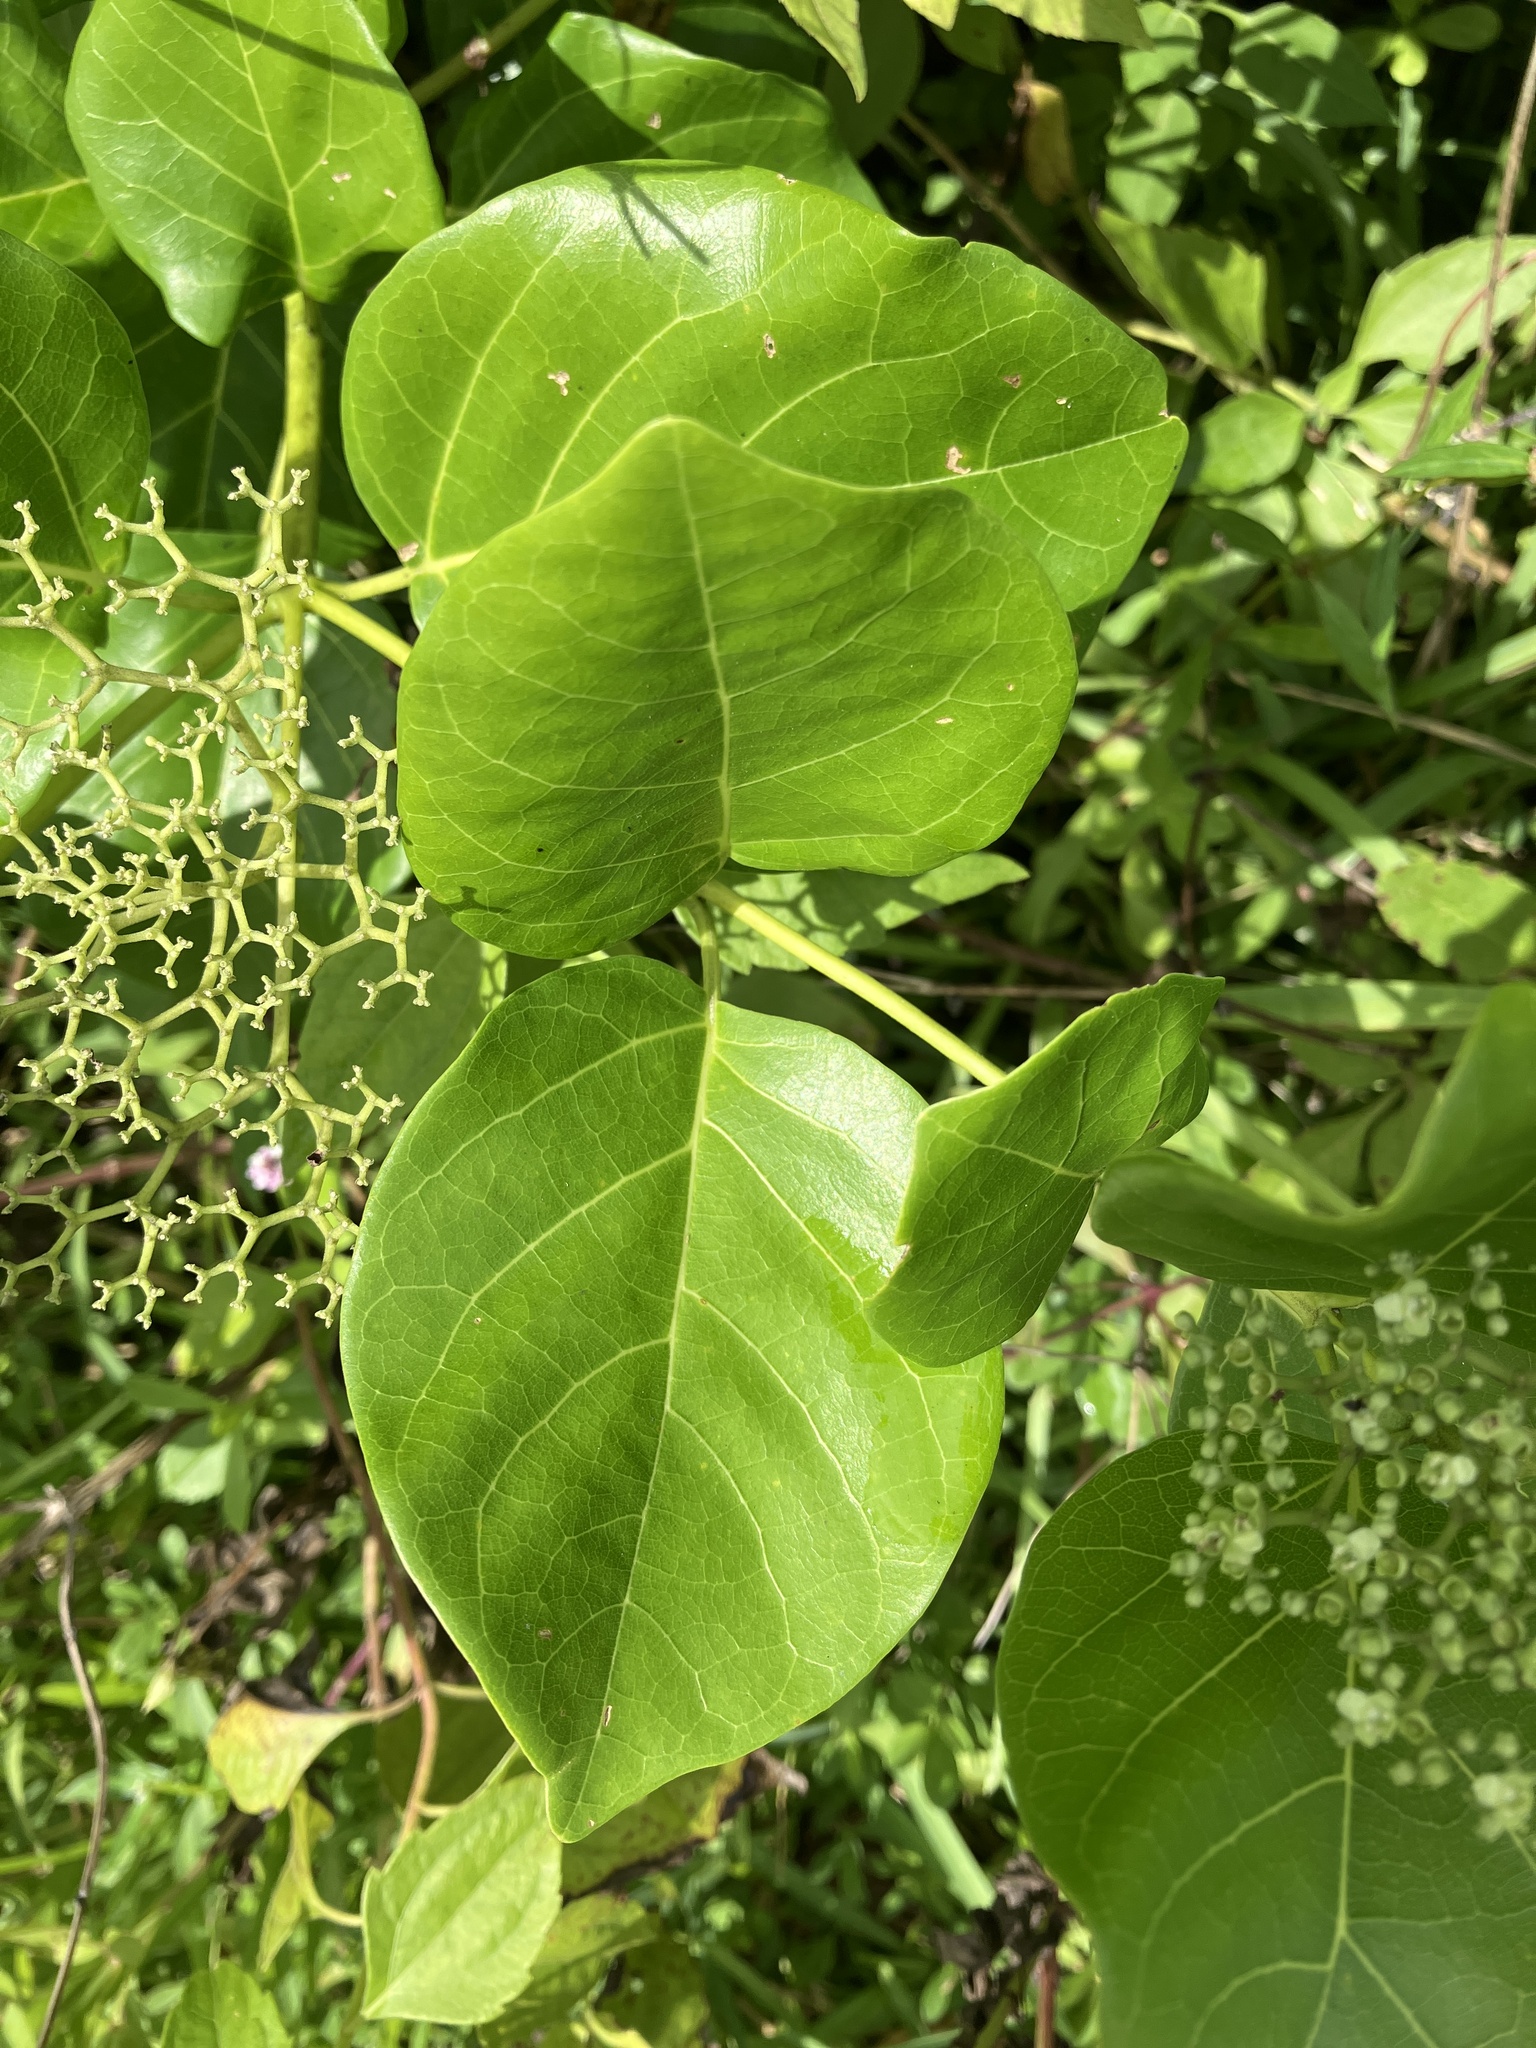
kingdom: Plantae
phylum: Tracheophyta
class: Magnoliopsida
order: Lamiales
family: Lamiaceae
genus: Premna
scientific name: Premna serratifolia
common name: Bastard guelder
